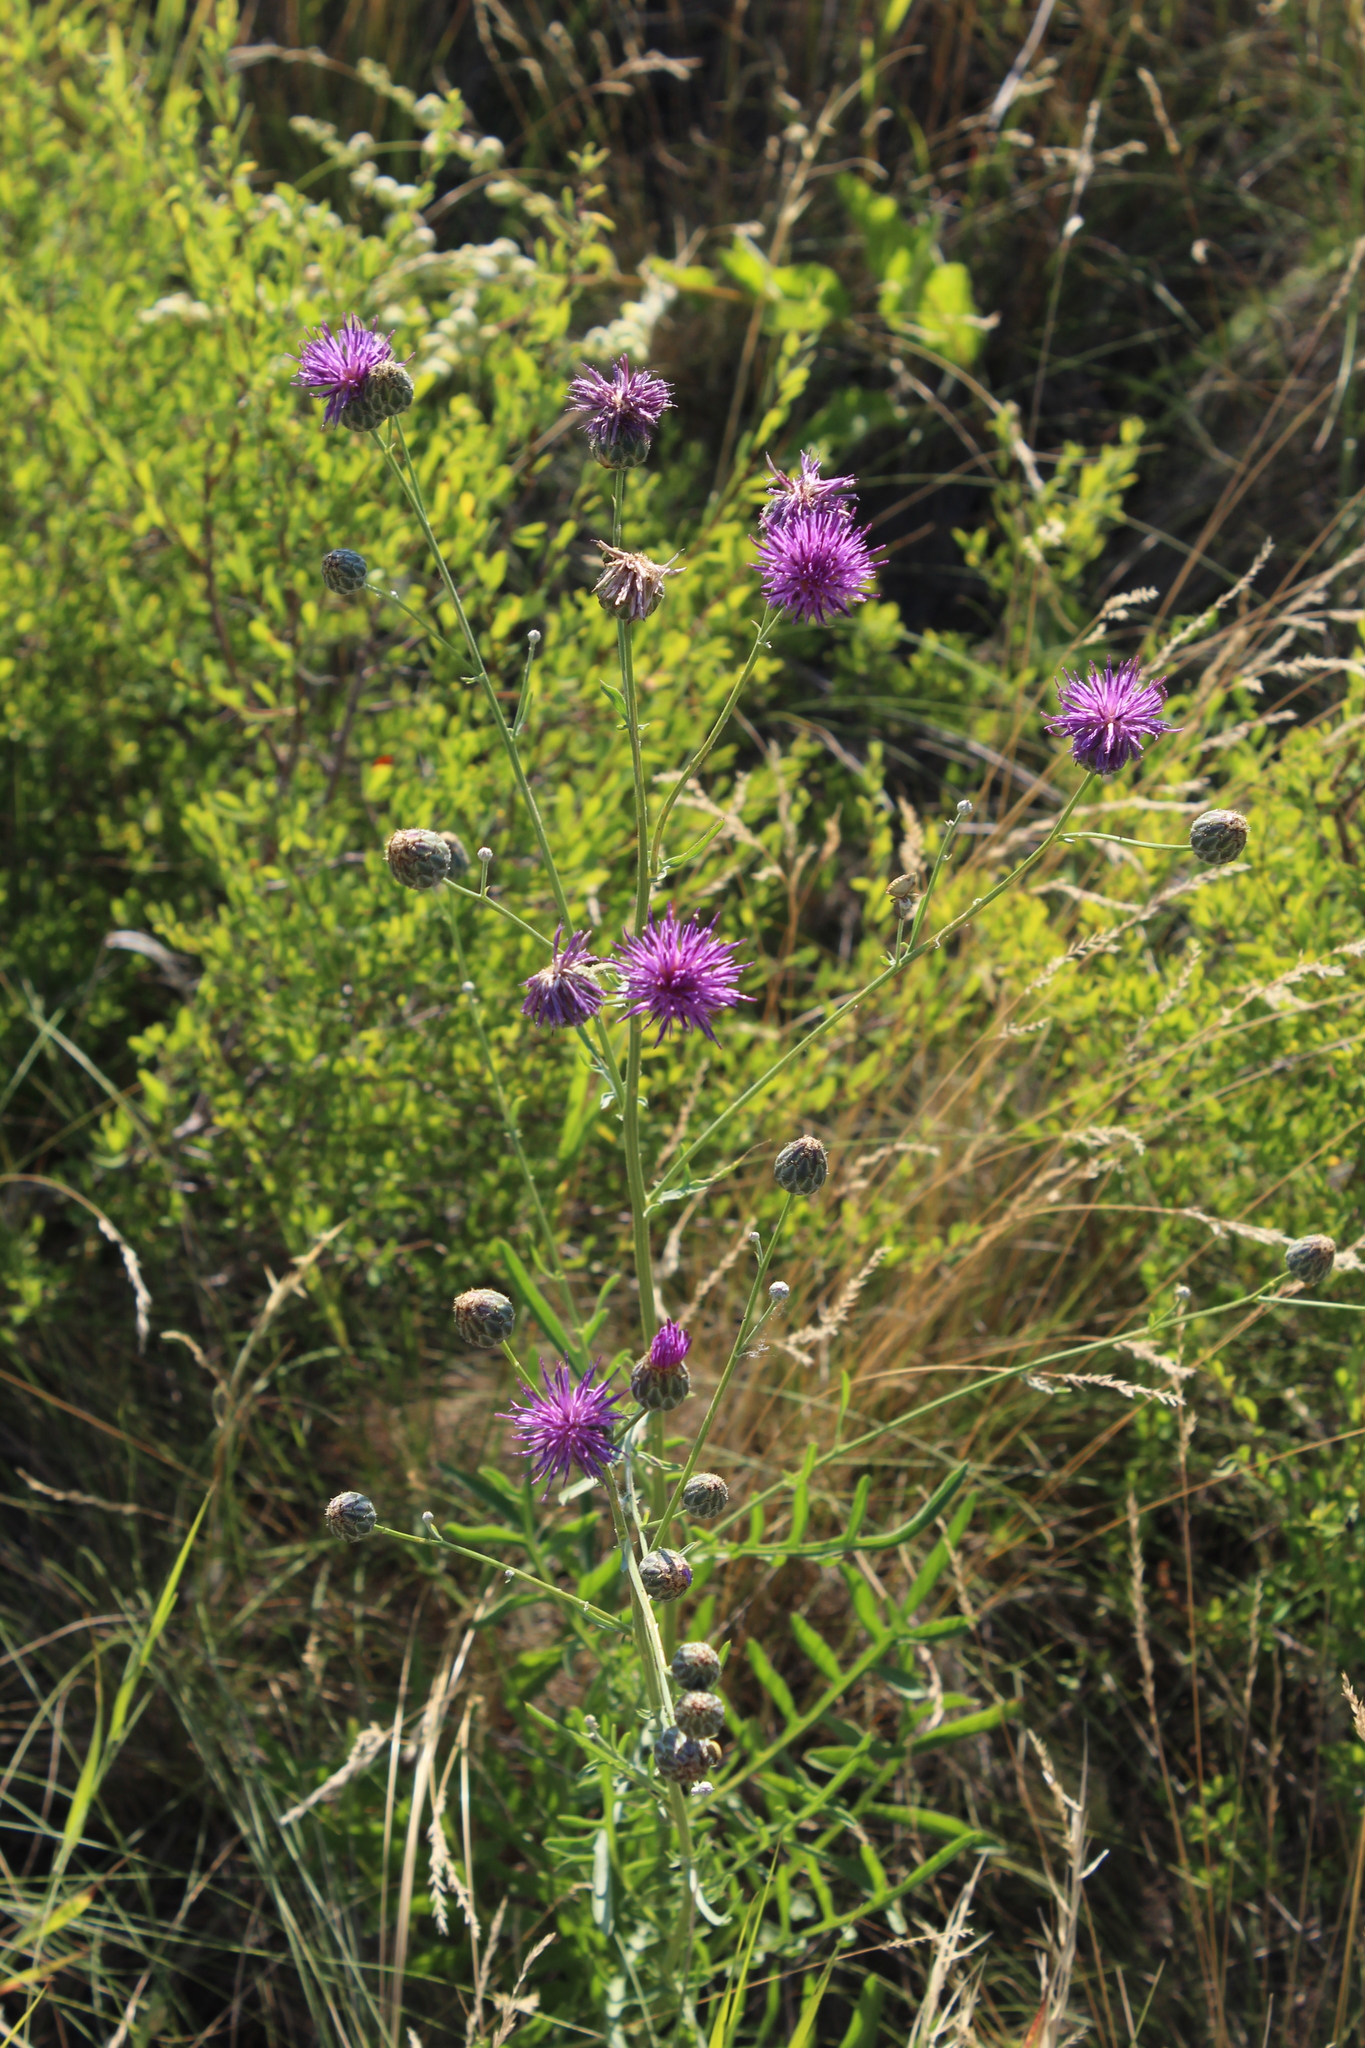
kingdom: Plantae
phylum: Tracheophyta
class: Magnoliopsida
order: Asterales
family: Asteraceae
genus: Centaurea
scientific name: Centaurea scabiosa
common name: Greater knapweed
